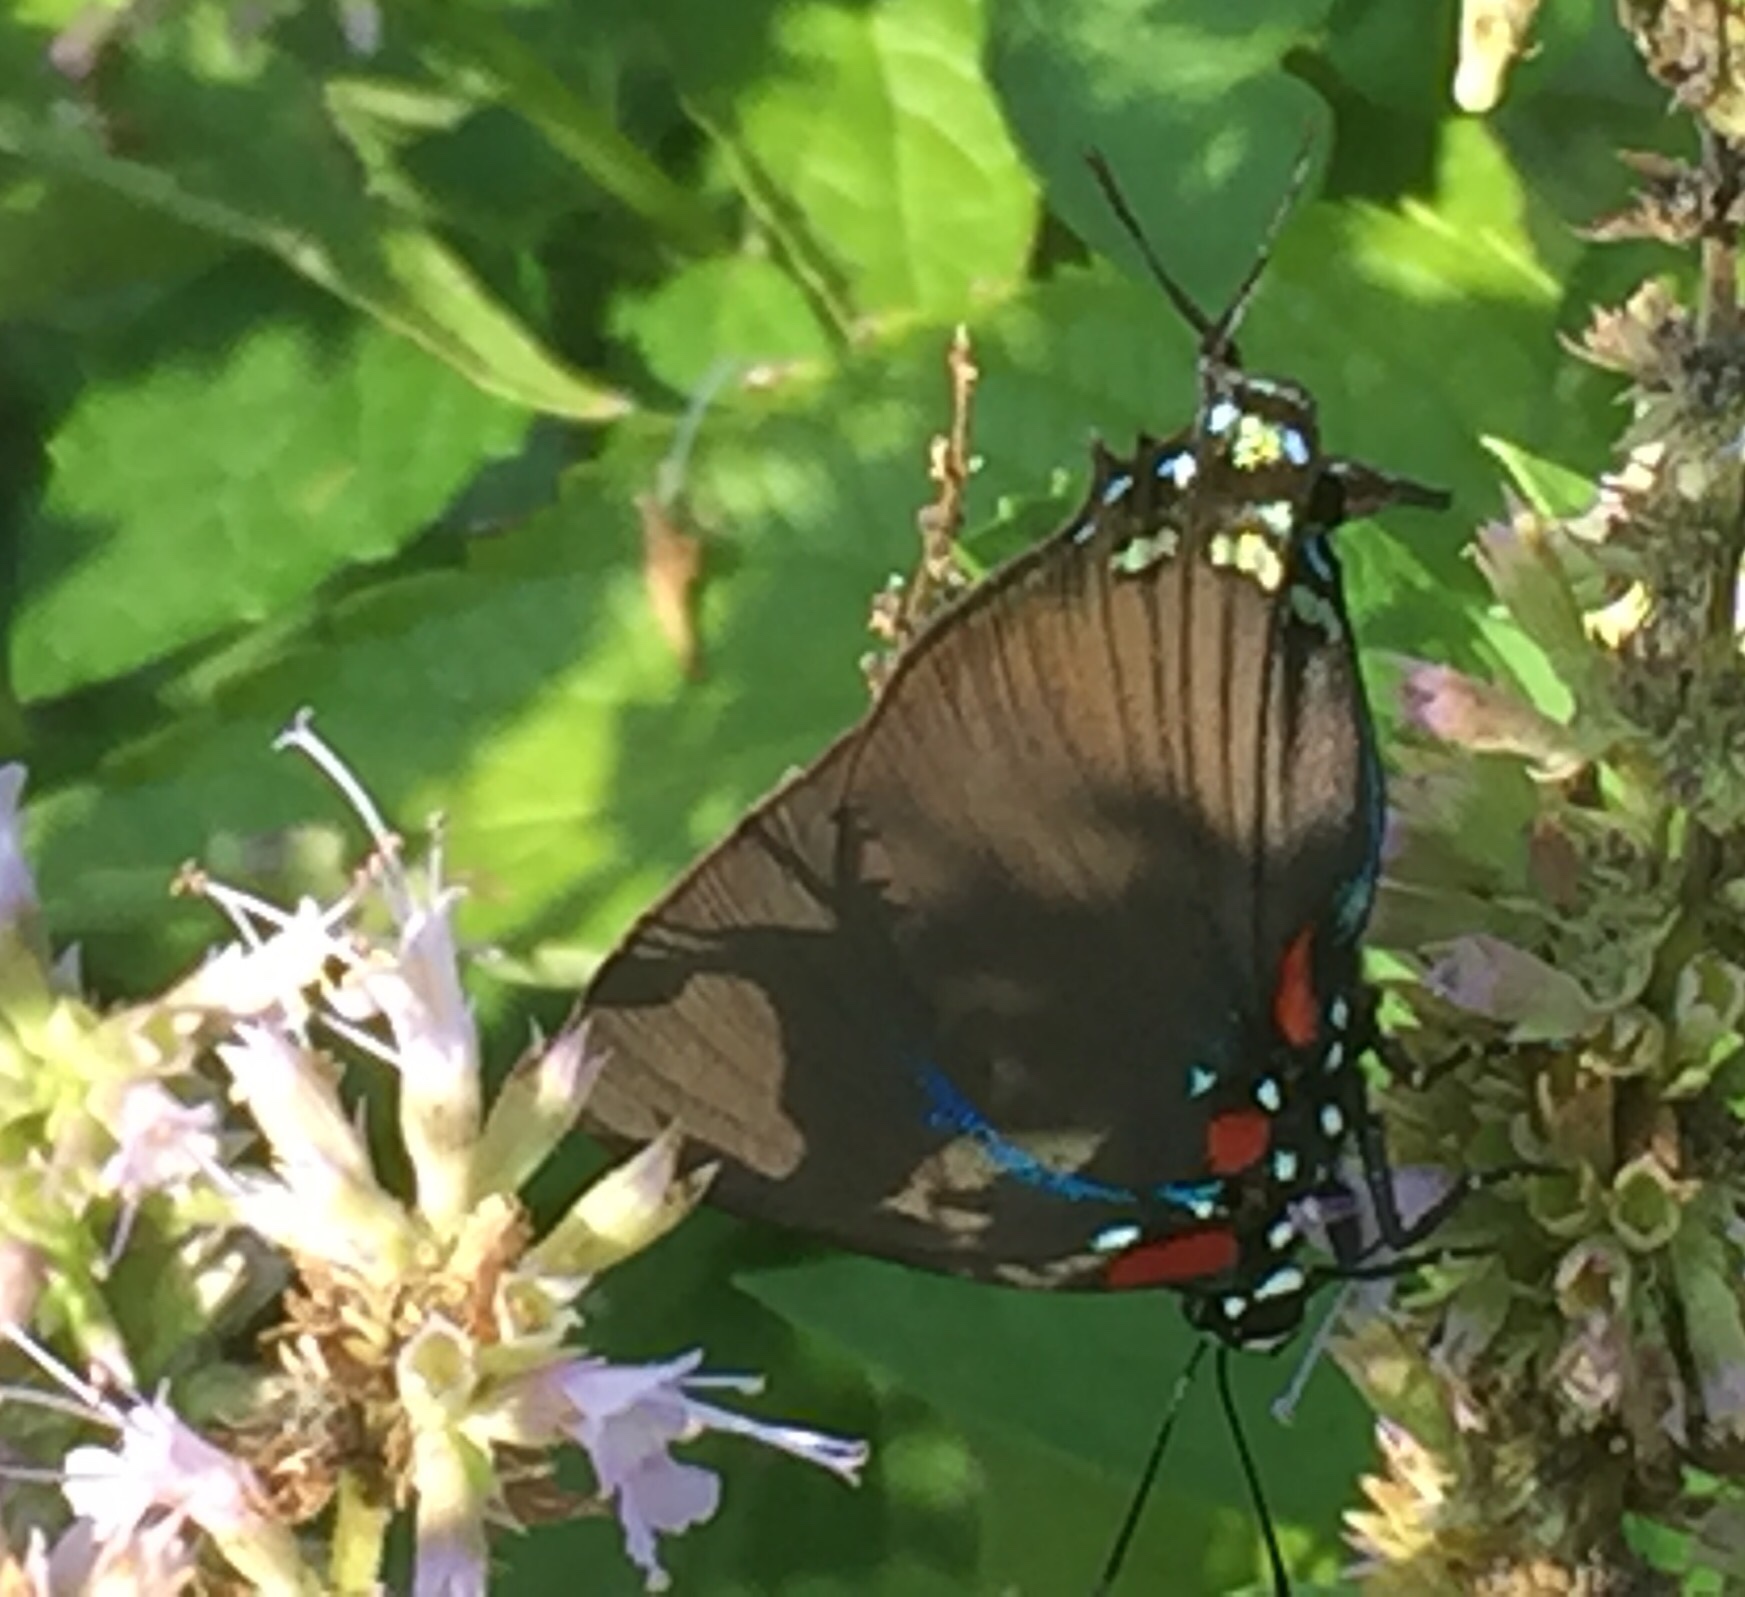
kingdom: Animalia
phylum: Arthropoda
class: Insecta
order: Lepidoptera
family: Lycaenidae
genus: Atlides
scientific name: Atlides halesus
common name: Great purple hairstreak
